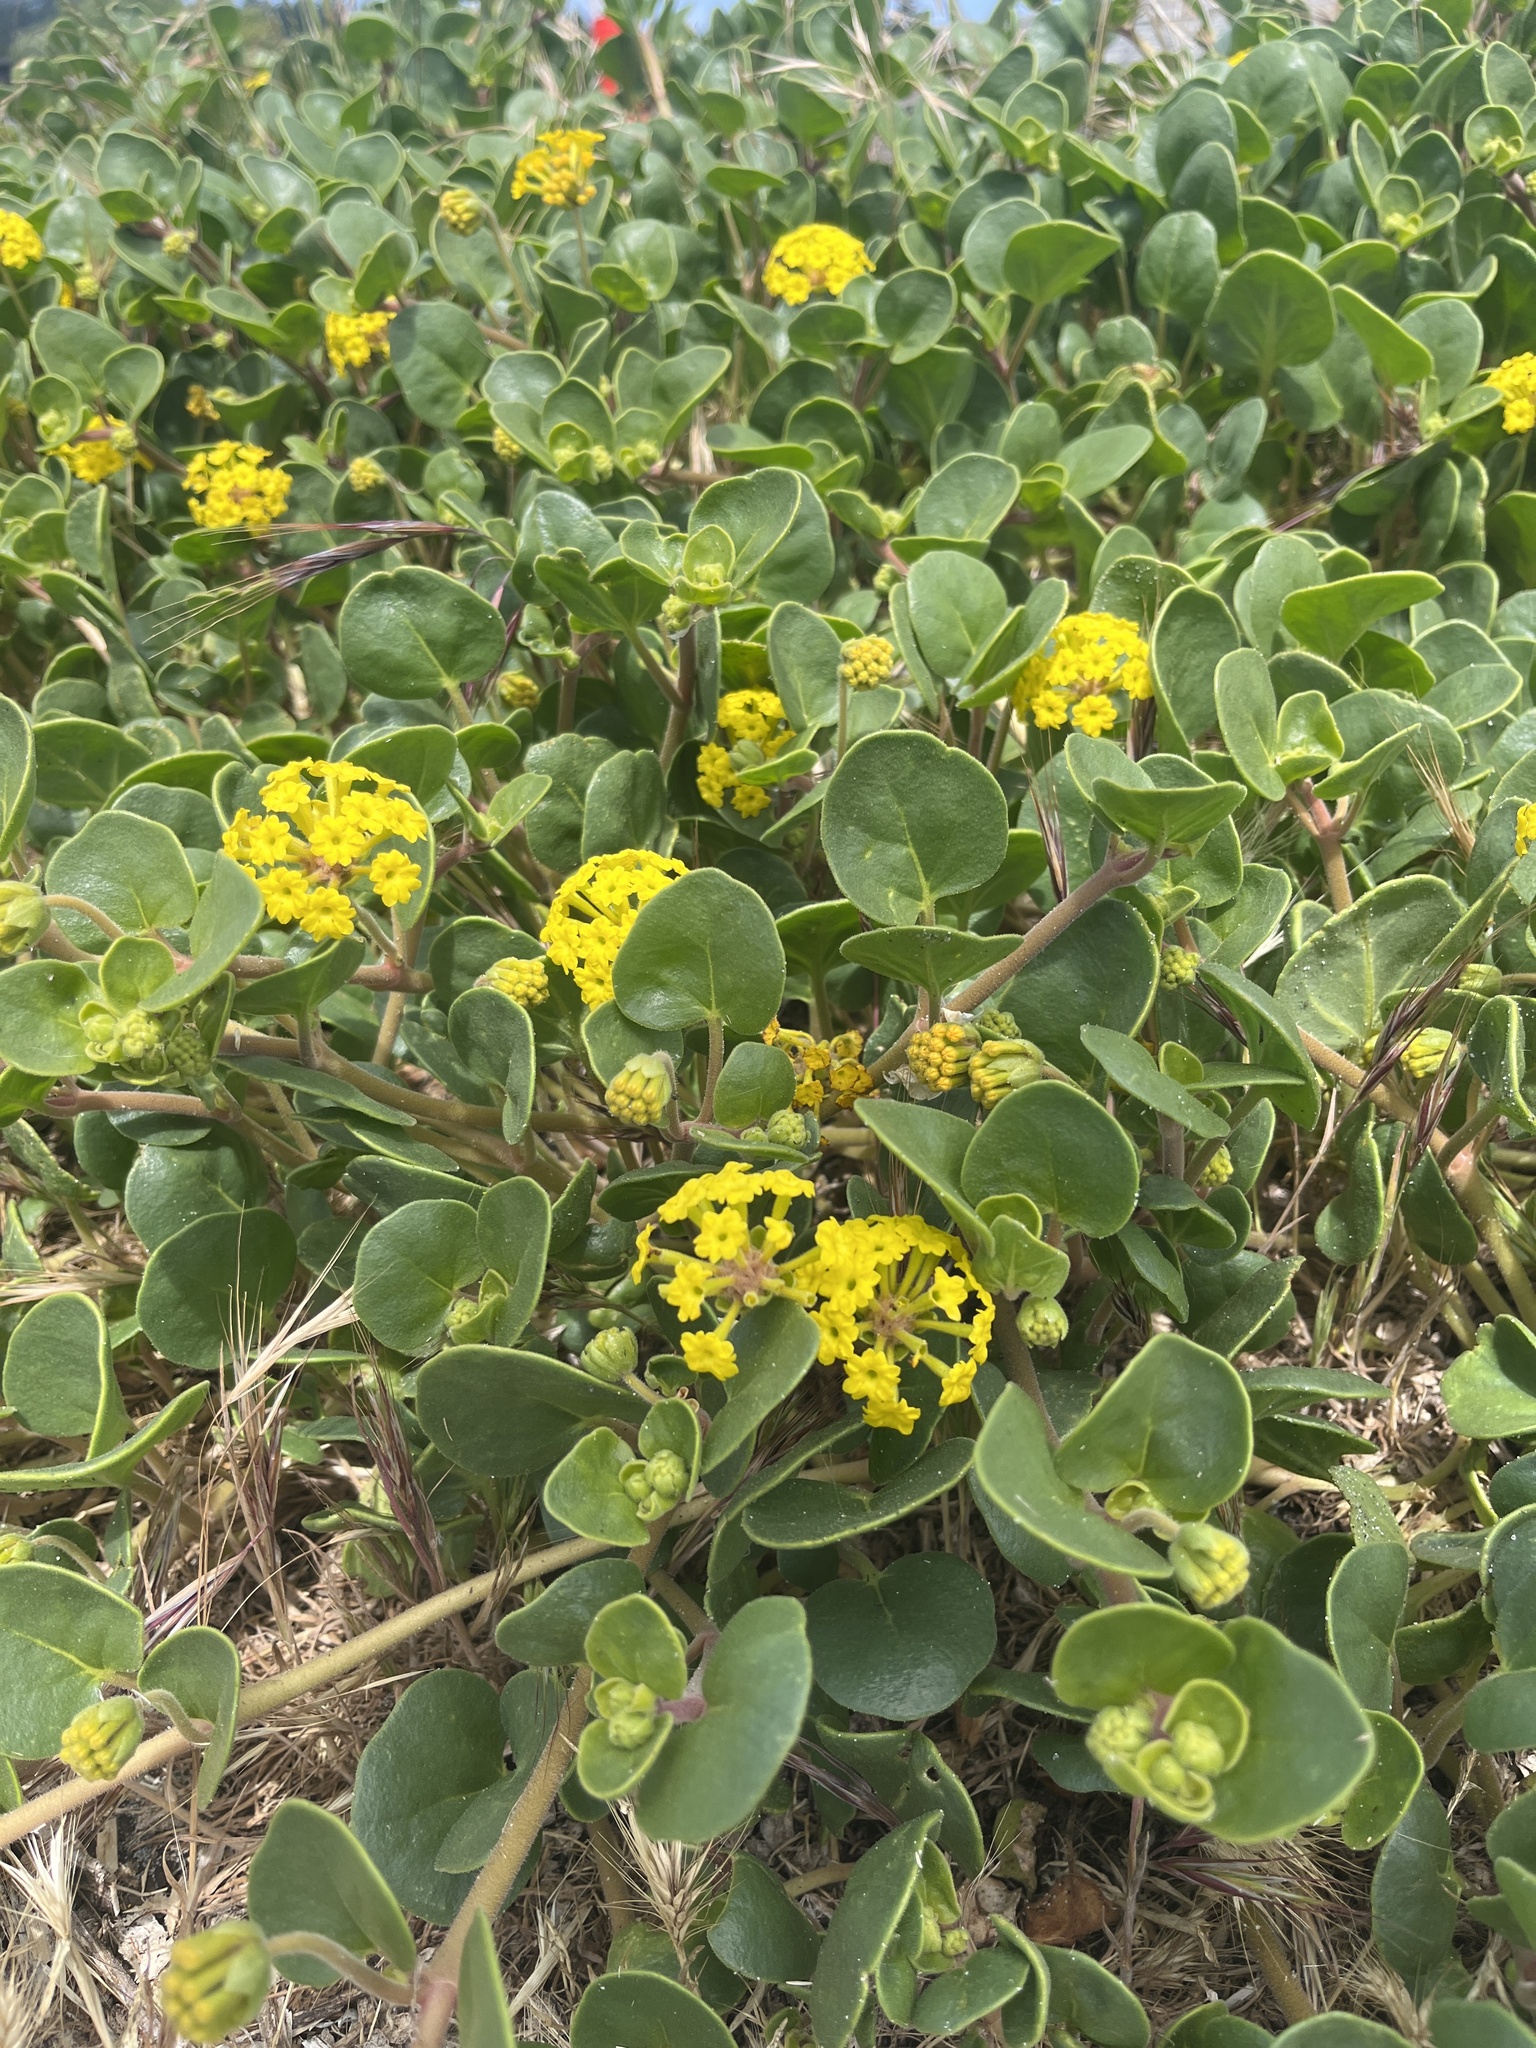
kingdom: Plantae
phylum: Tracheophyta
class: Magnoliopsida
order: Caryophyllales
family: Nyctaginaceae
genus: Abronia
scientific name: Abronia latifolia
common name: Yellow sand-verbena
